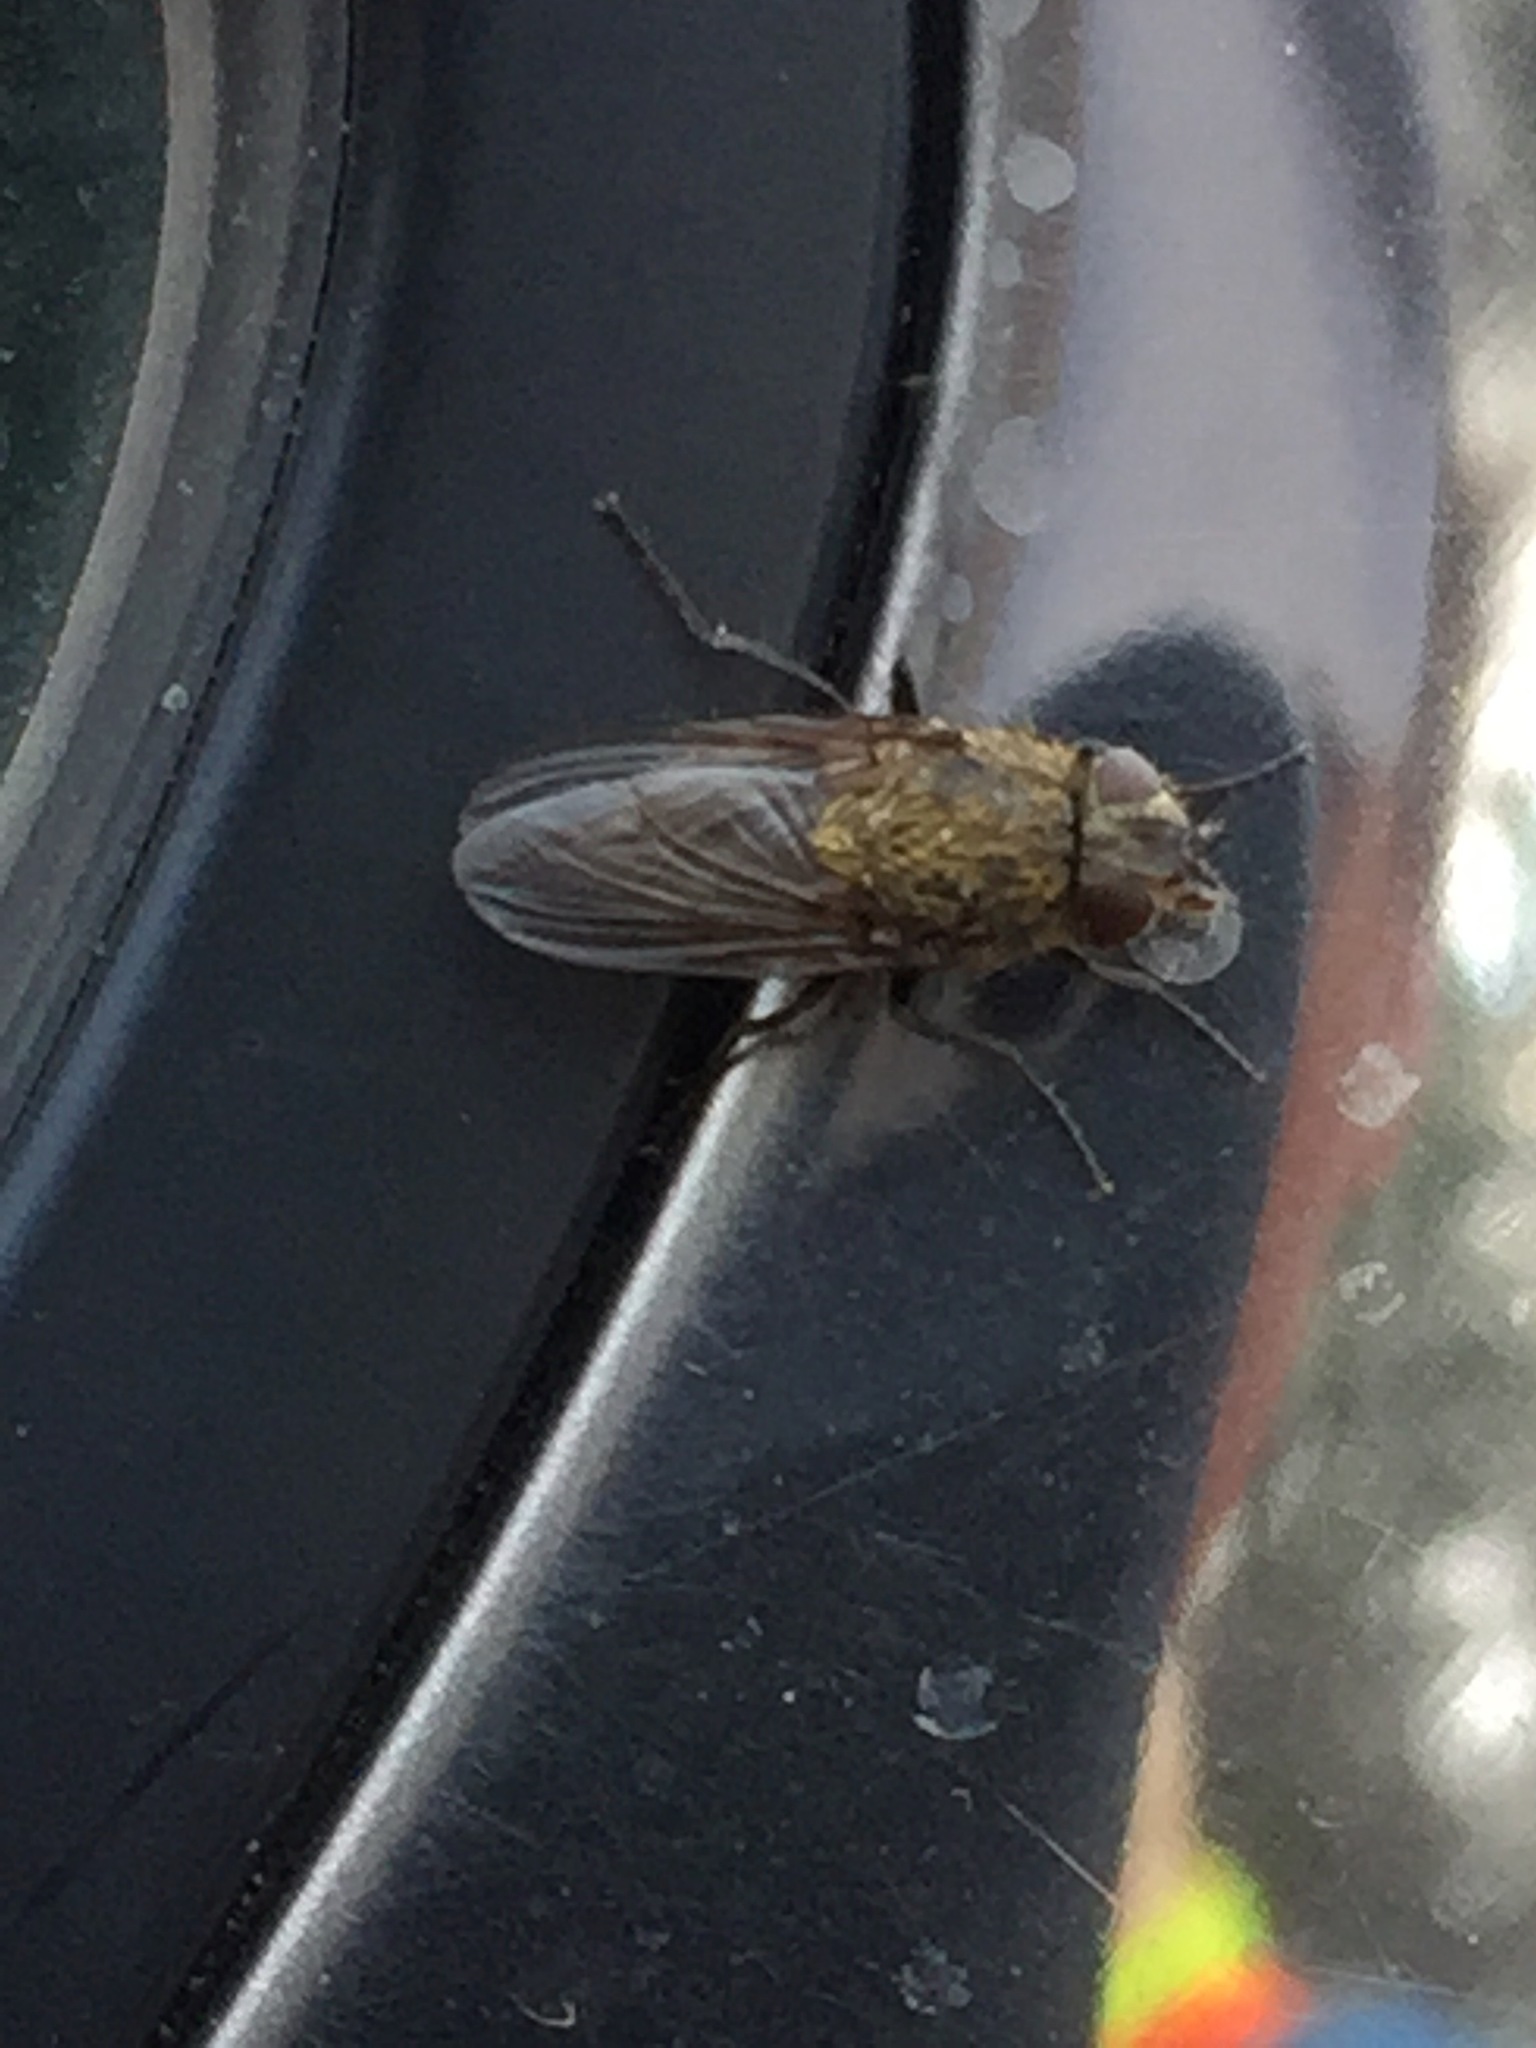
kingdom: Animalia
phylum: Arthropoda
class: Insecta
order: Diptera
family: Polleniidae
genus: Pollenia
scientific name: Pollenia
